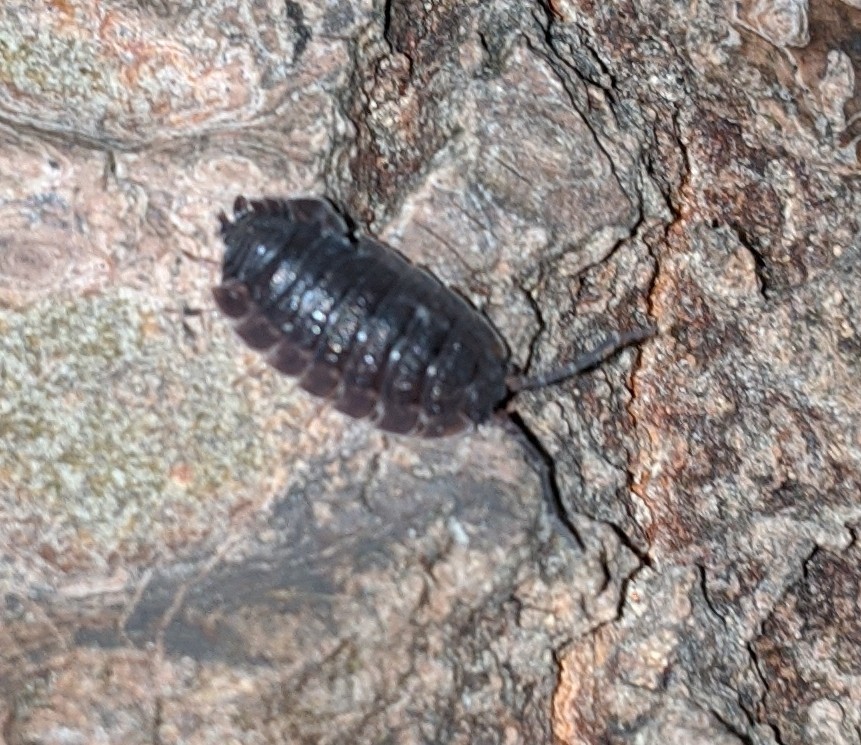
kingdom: Animalia
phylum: Arthropoda
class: Malacostraca
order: Isopoda
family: Porcellionidae
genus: Porcellio
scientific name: Porcellio scaber
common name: Common rough woodlouse
